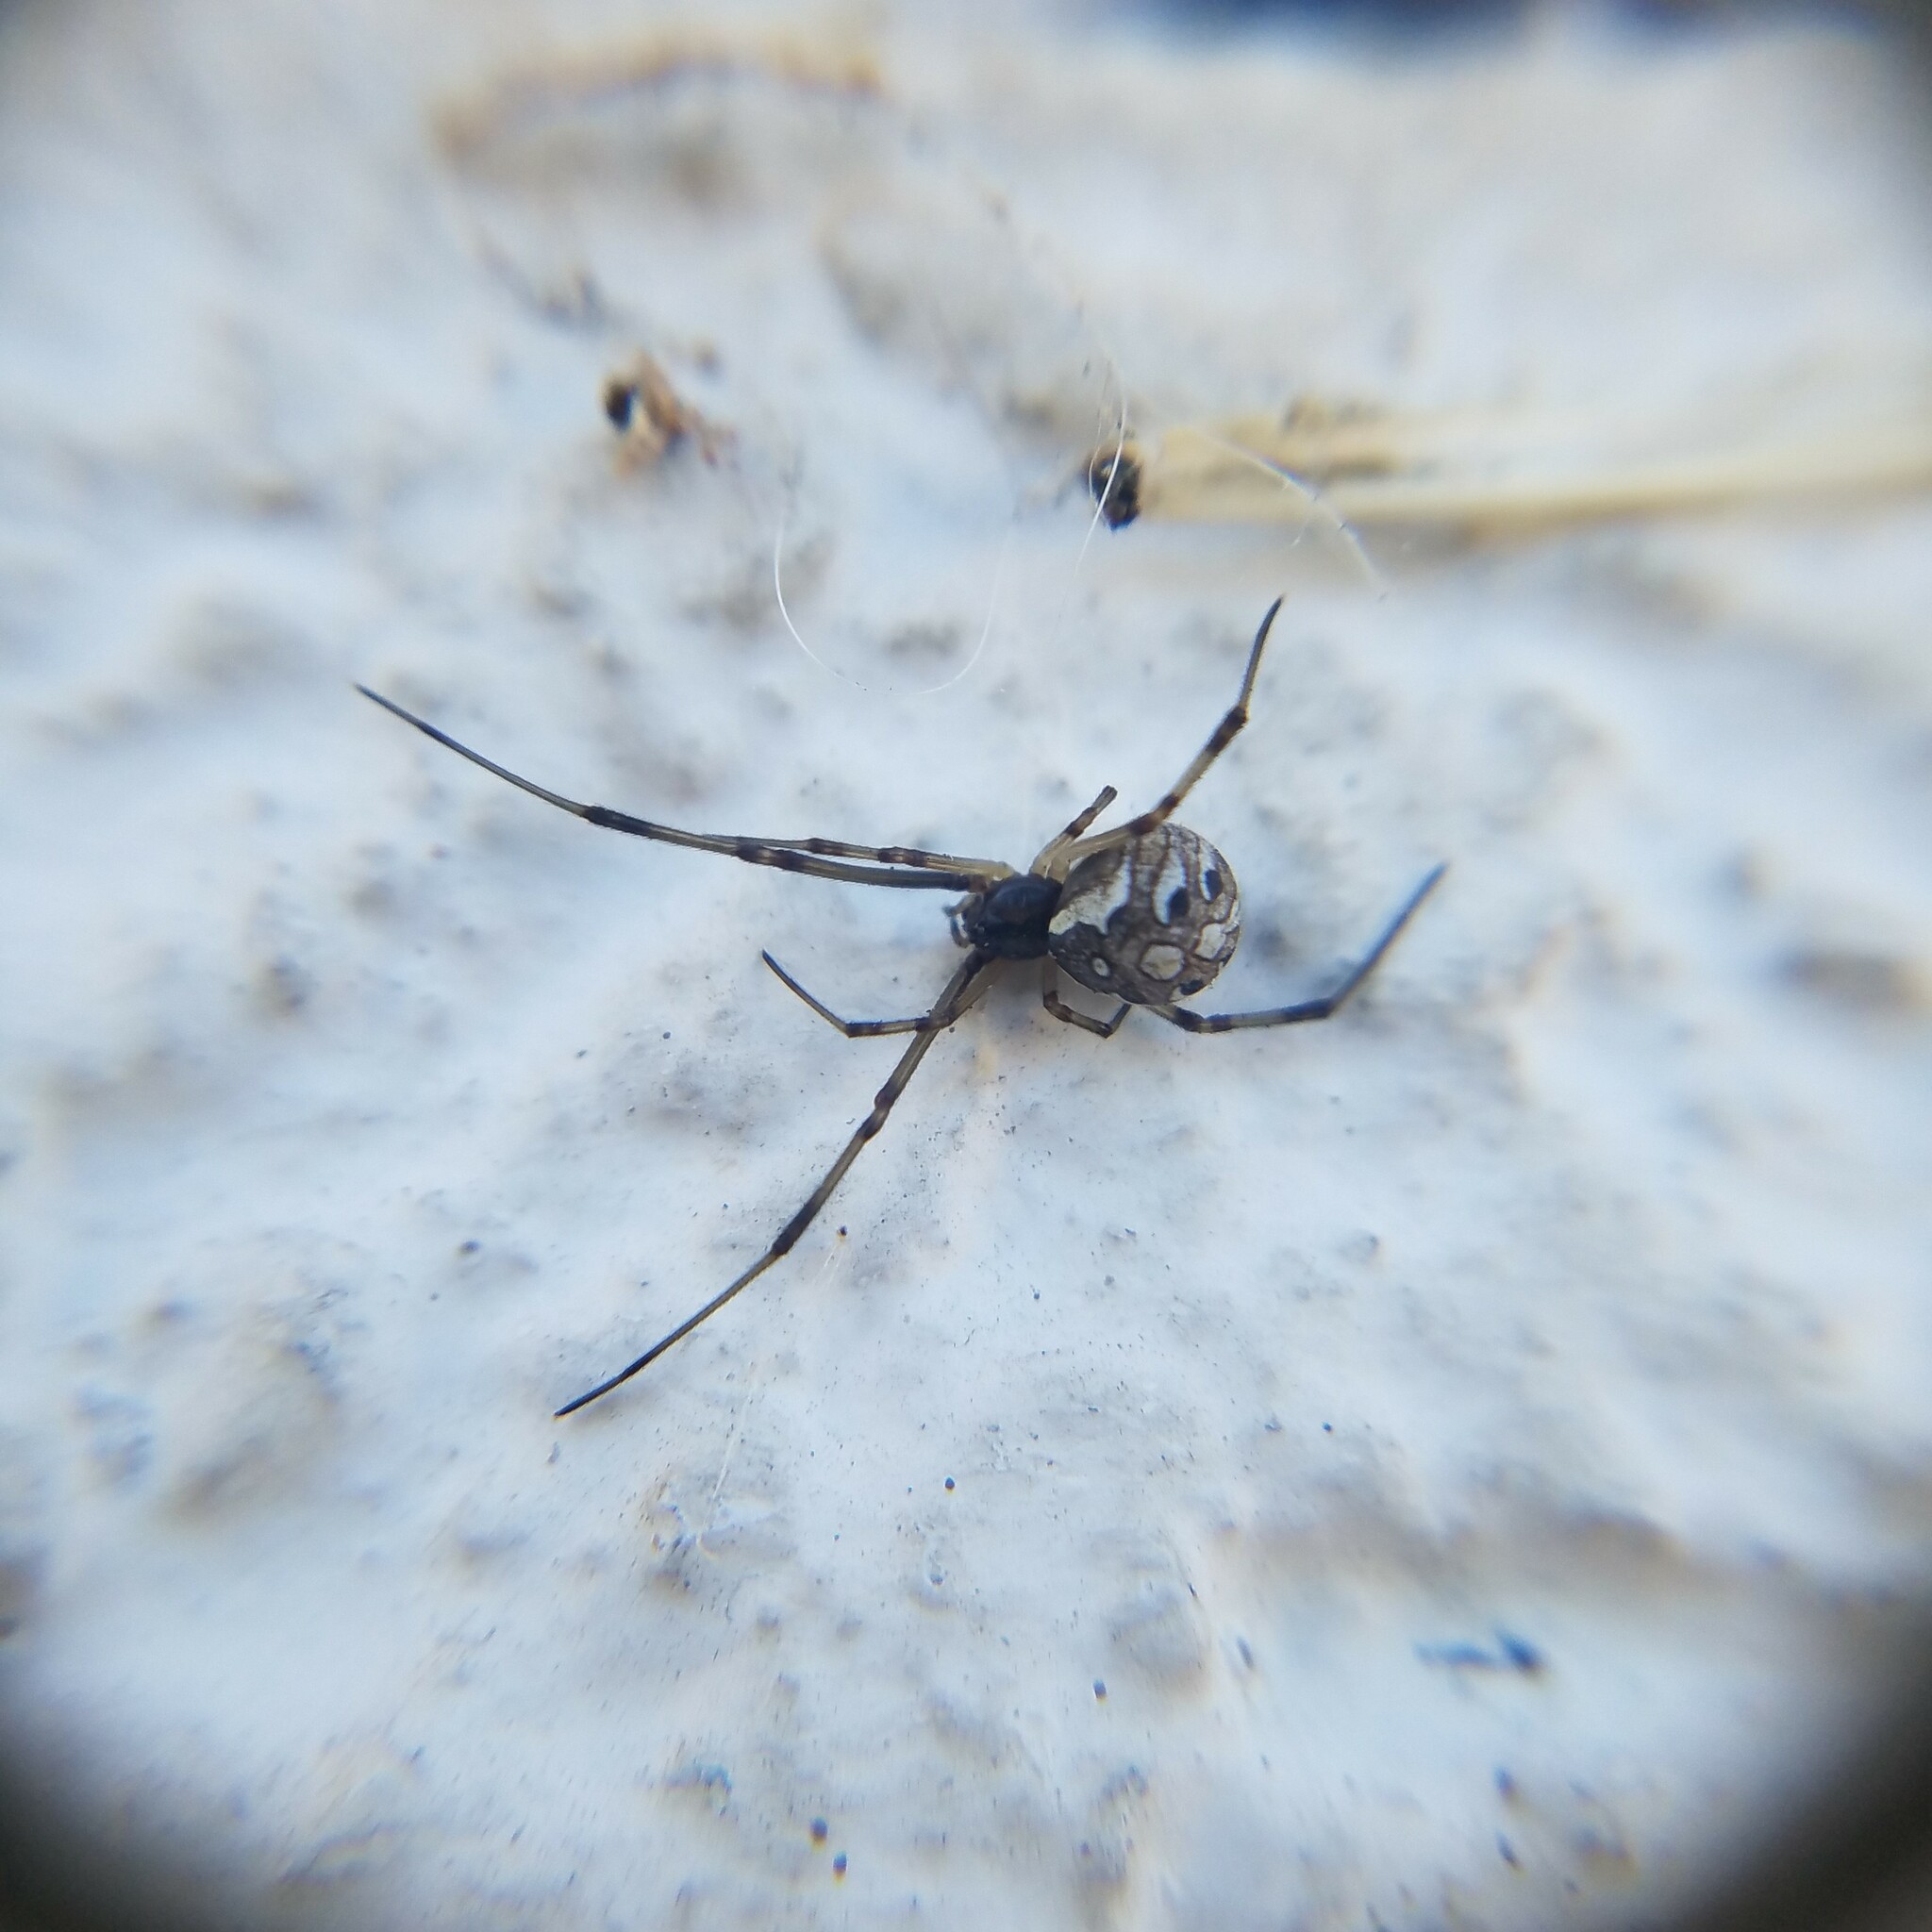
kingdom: Animalia
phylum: Arthropoda
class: Arachnida
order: Araneae
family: Theridiidae
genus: Latrodectus
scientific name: Latrodectus geometricus
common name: Brown widow spider
